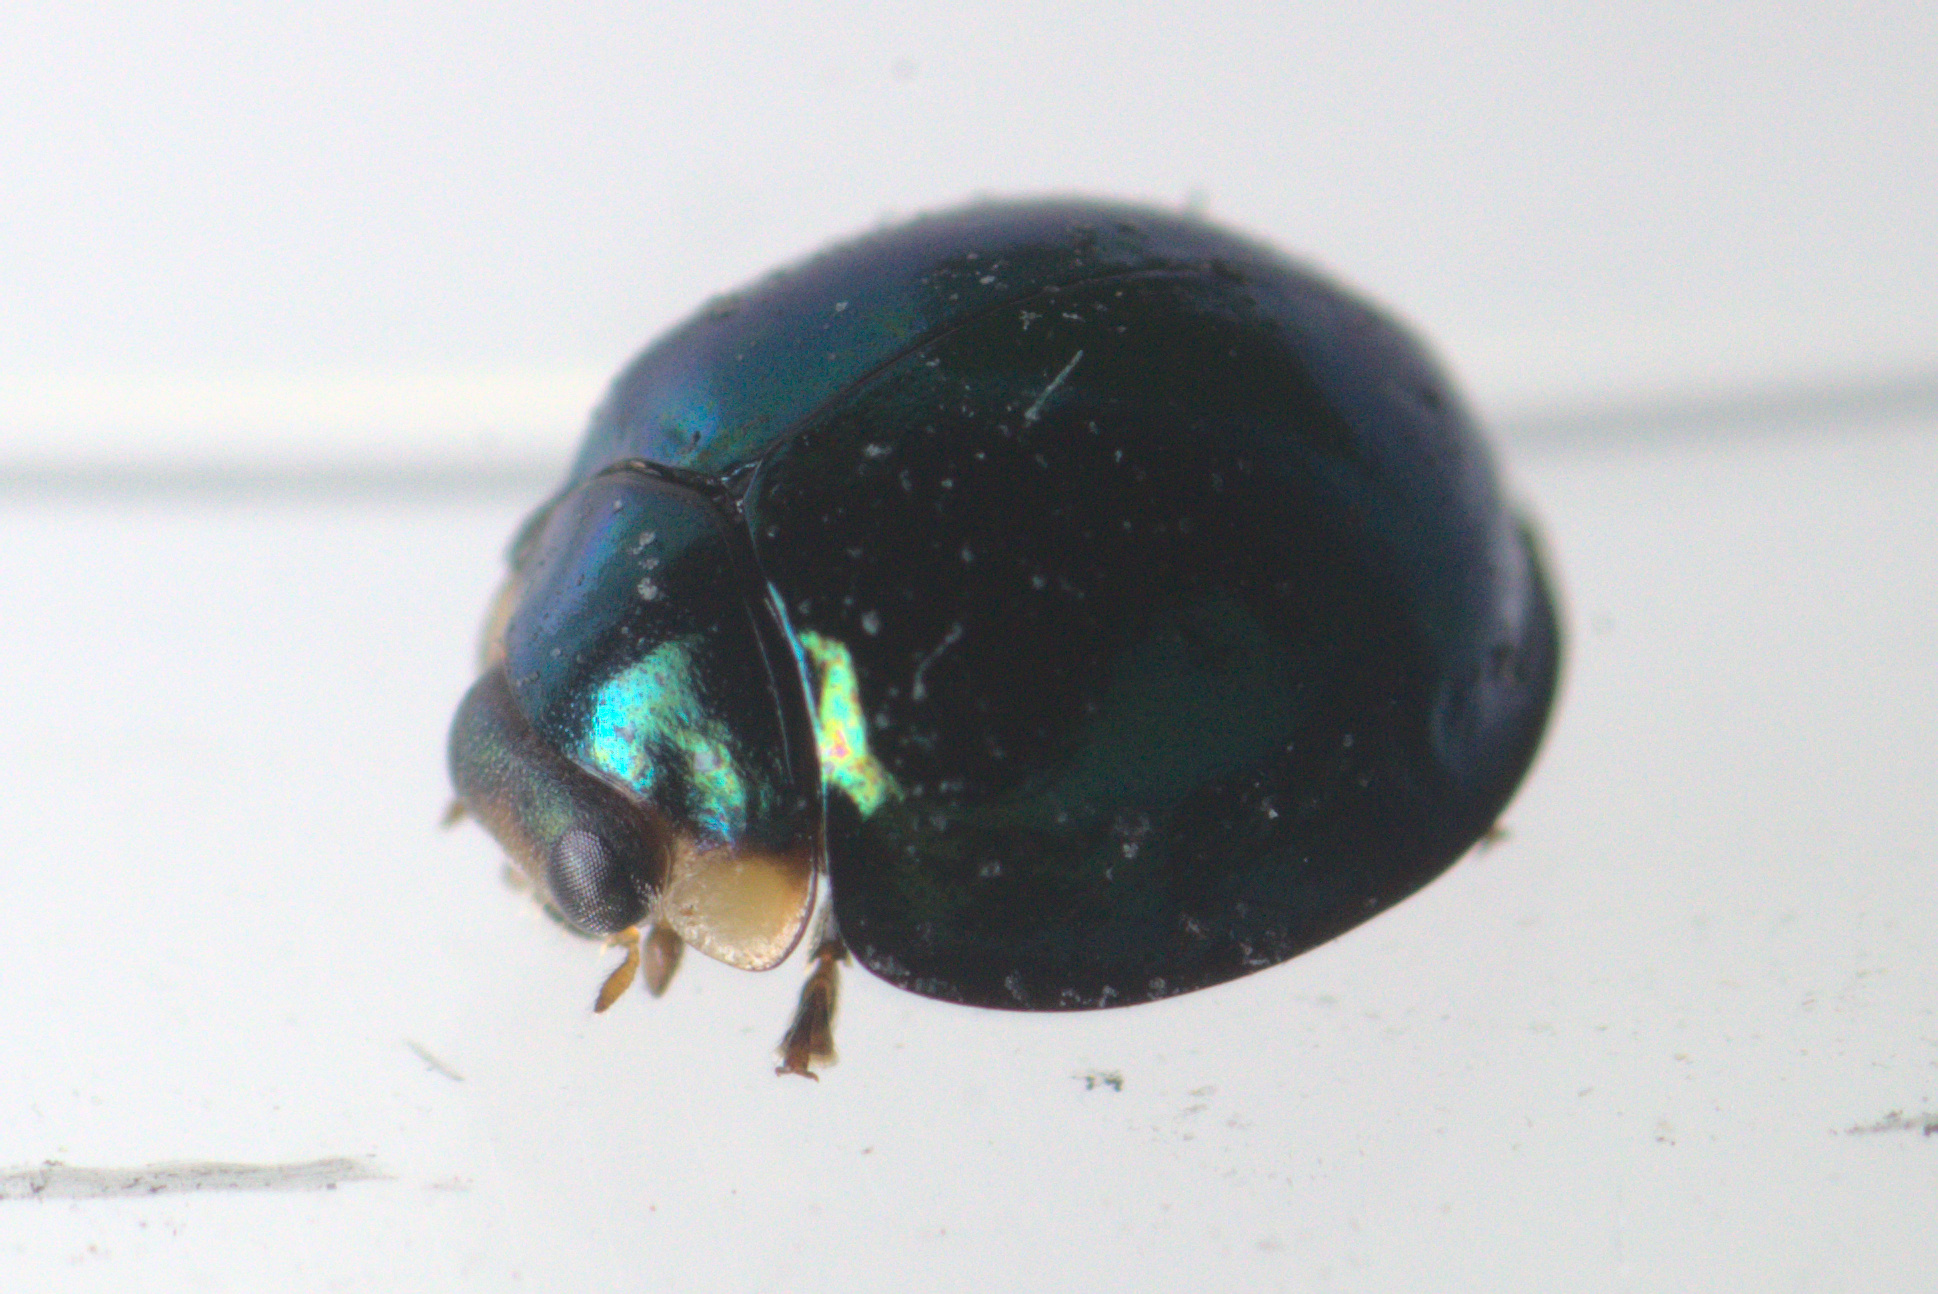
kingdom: Animalia
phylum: Arthropoda
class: Insecta
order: Coleoptera
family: Coccinellidae
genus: Halmus
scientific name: Halmus chalybeus
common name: Steel blue ladybird beetle
